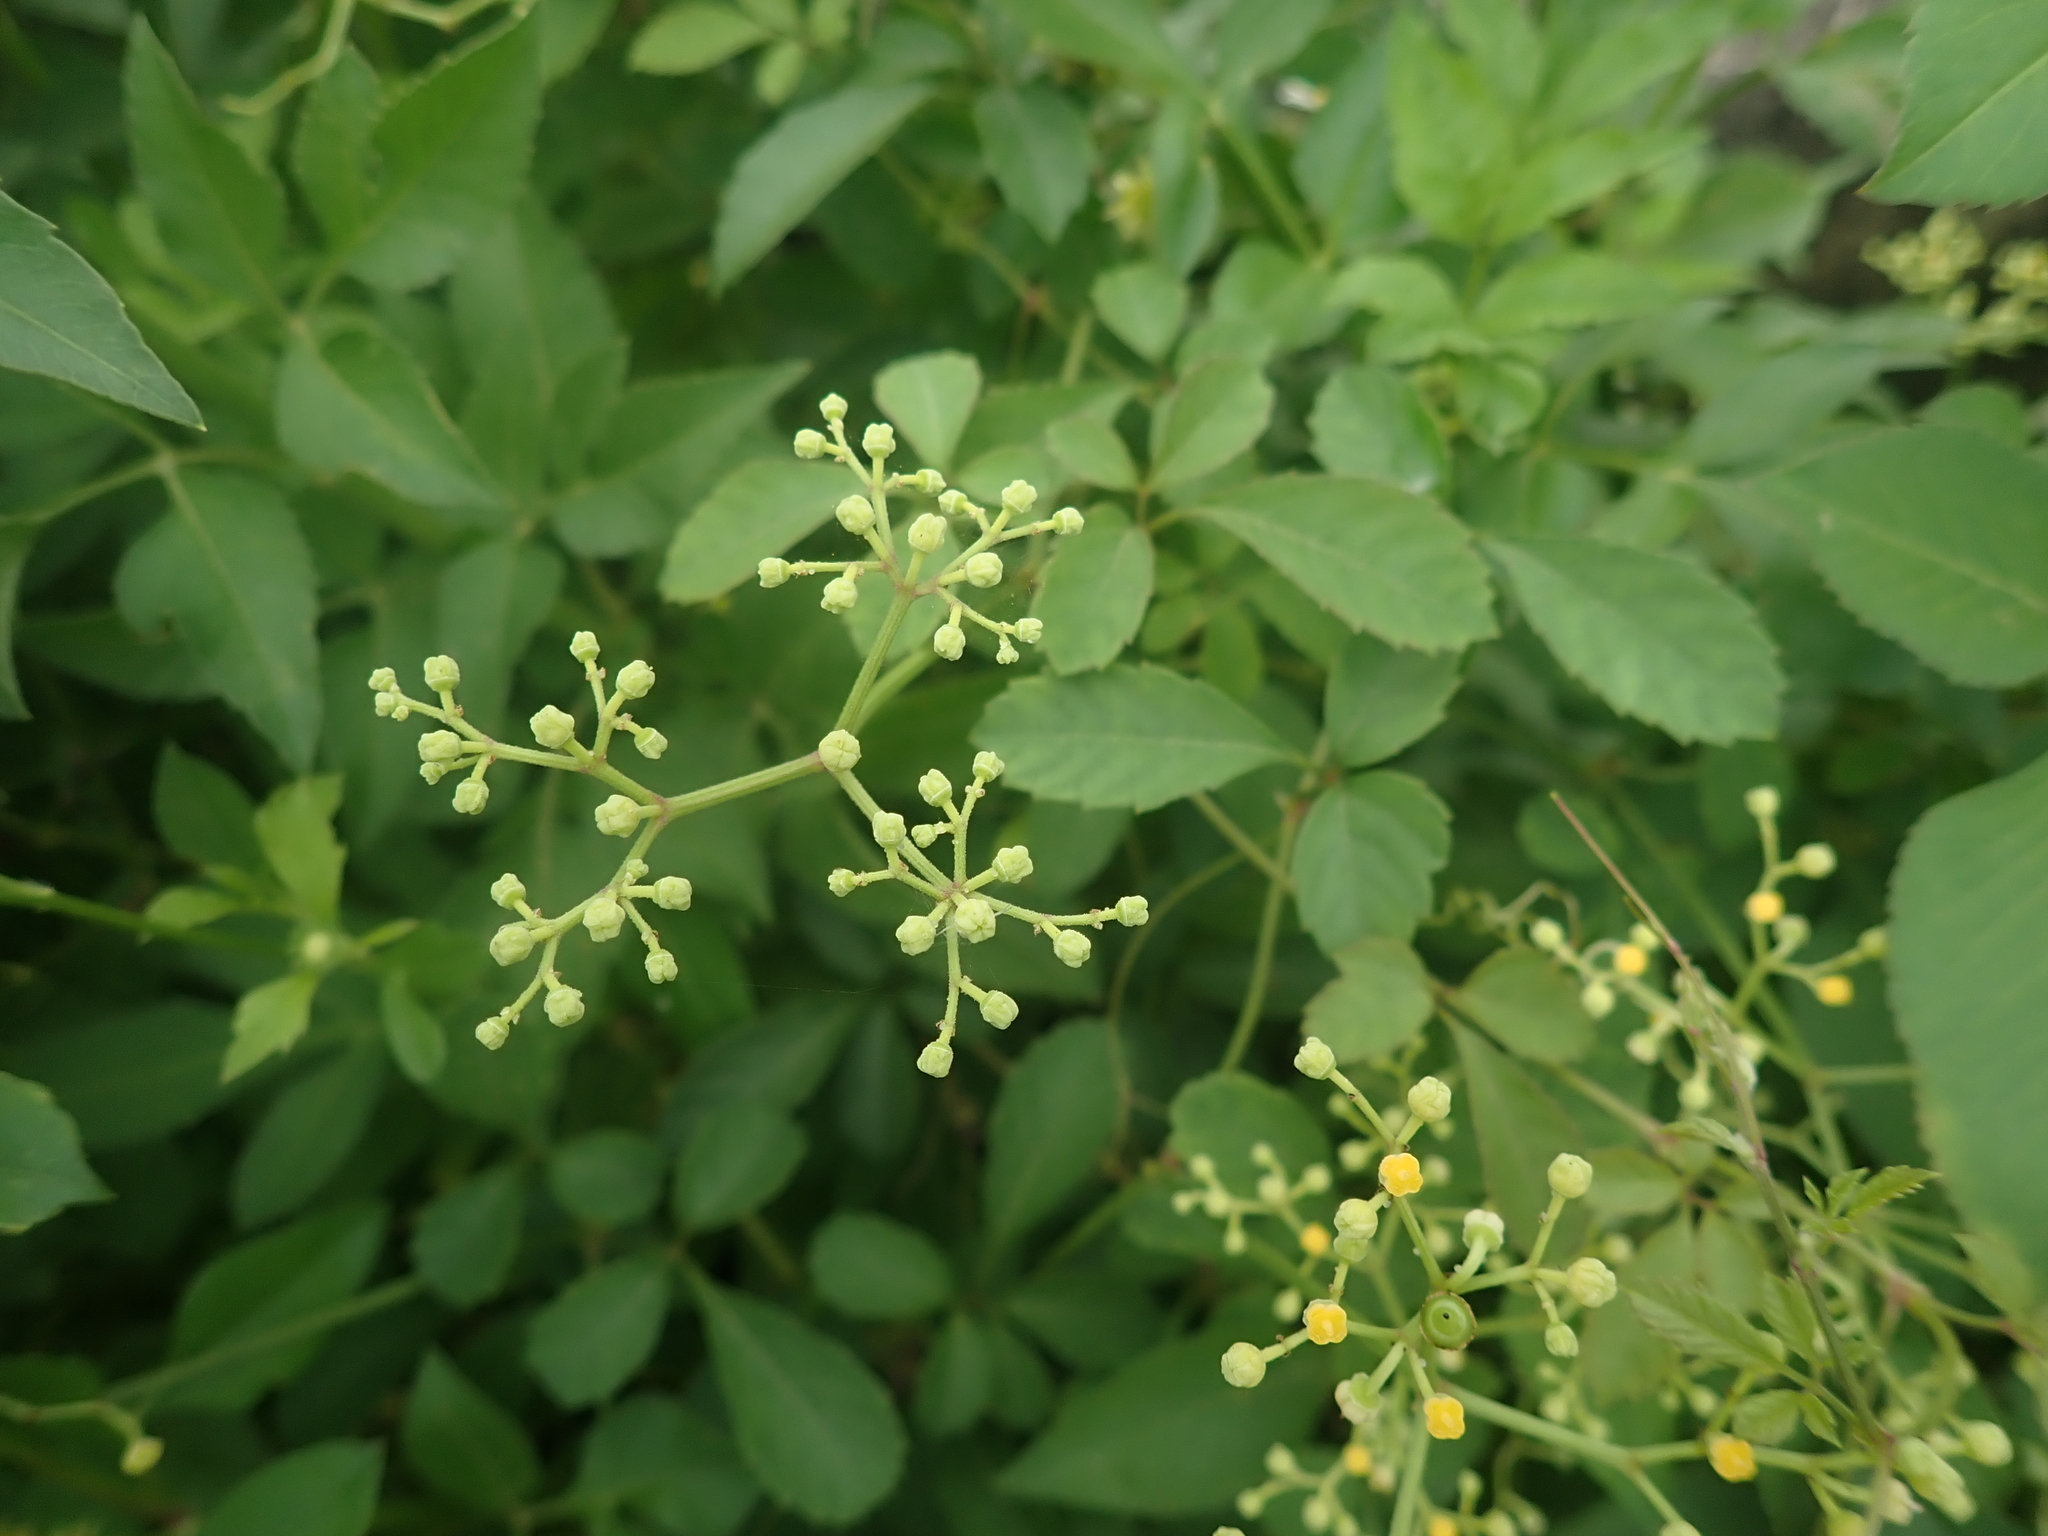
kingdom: Plantae
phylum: Tracheophyta
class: Magnoliopsida
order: Vitales
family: Vitaceae
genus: Causonis
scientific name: Causonis japonica
